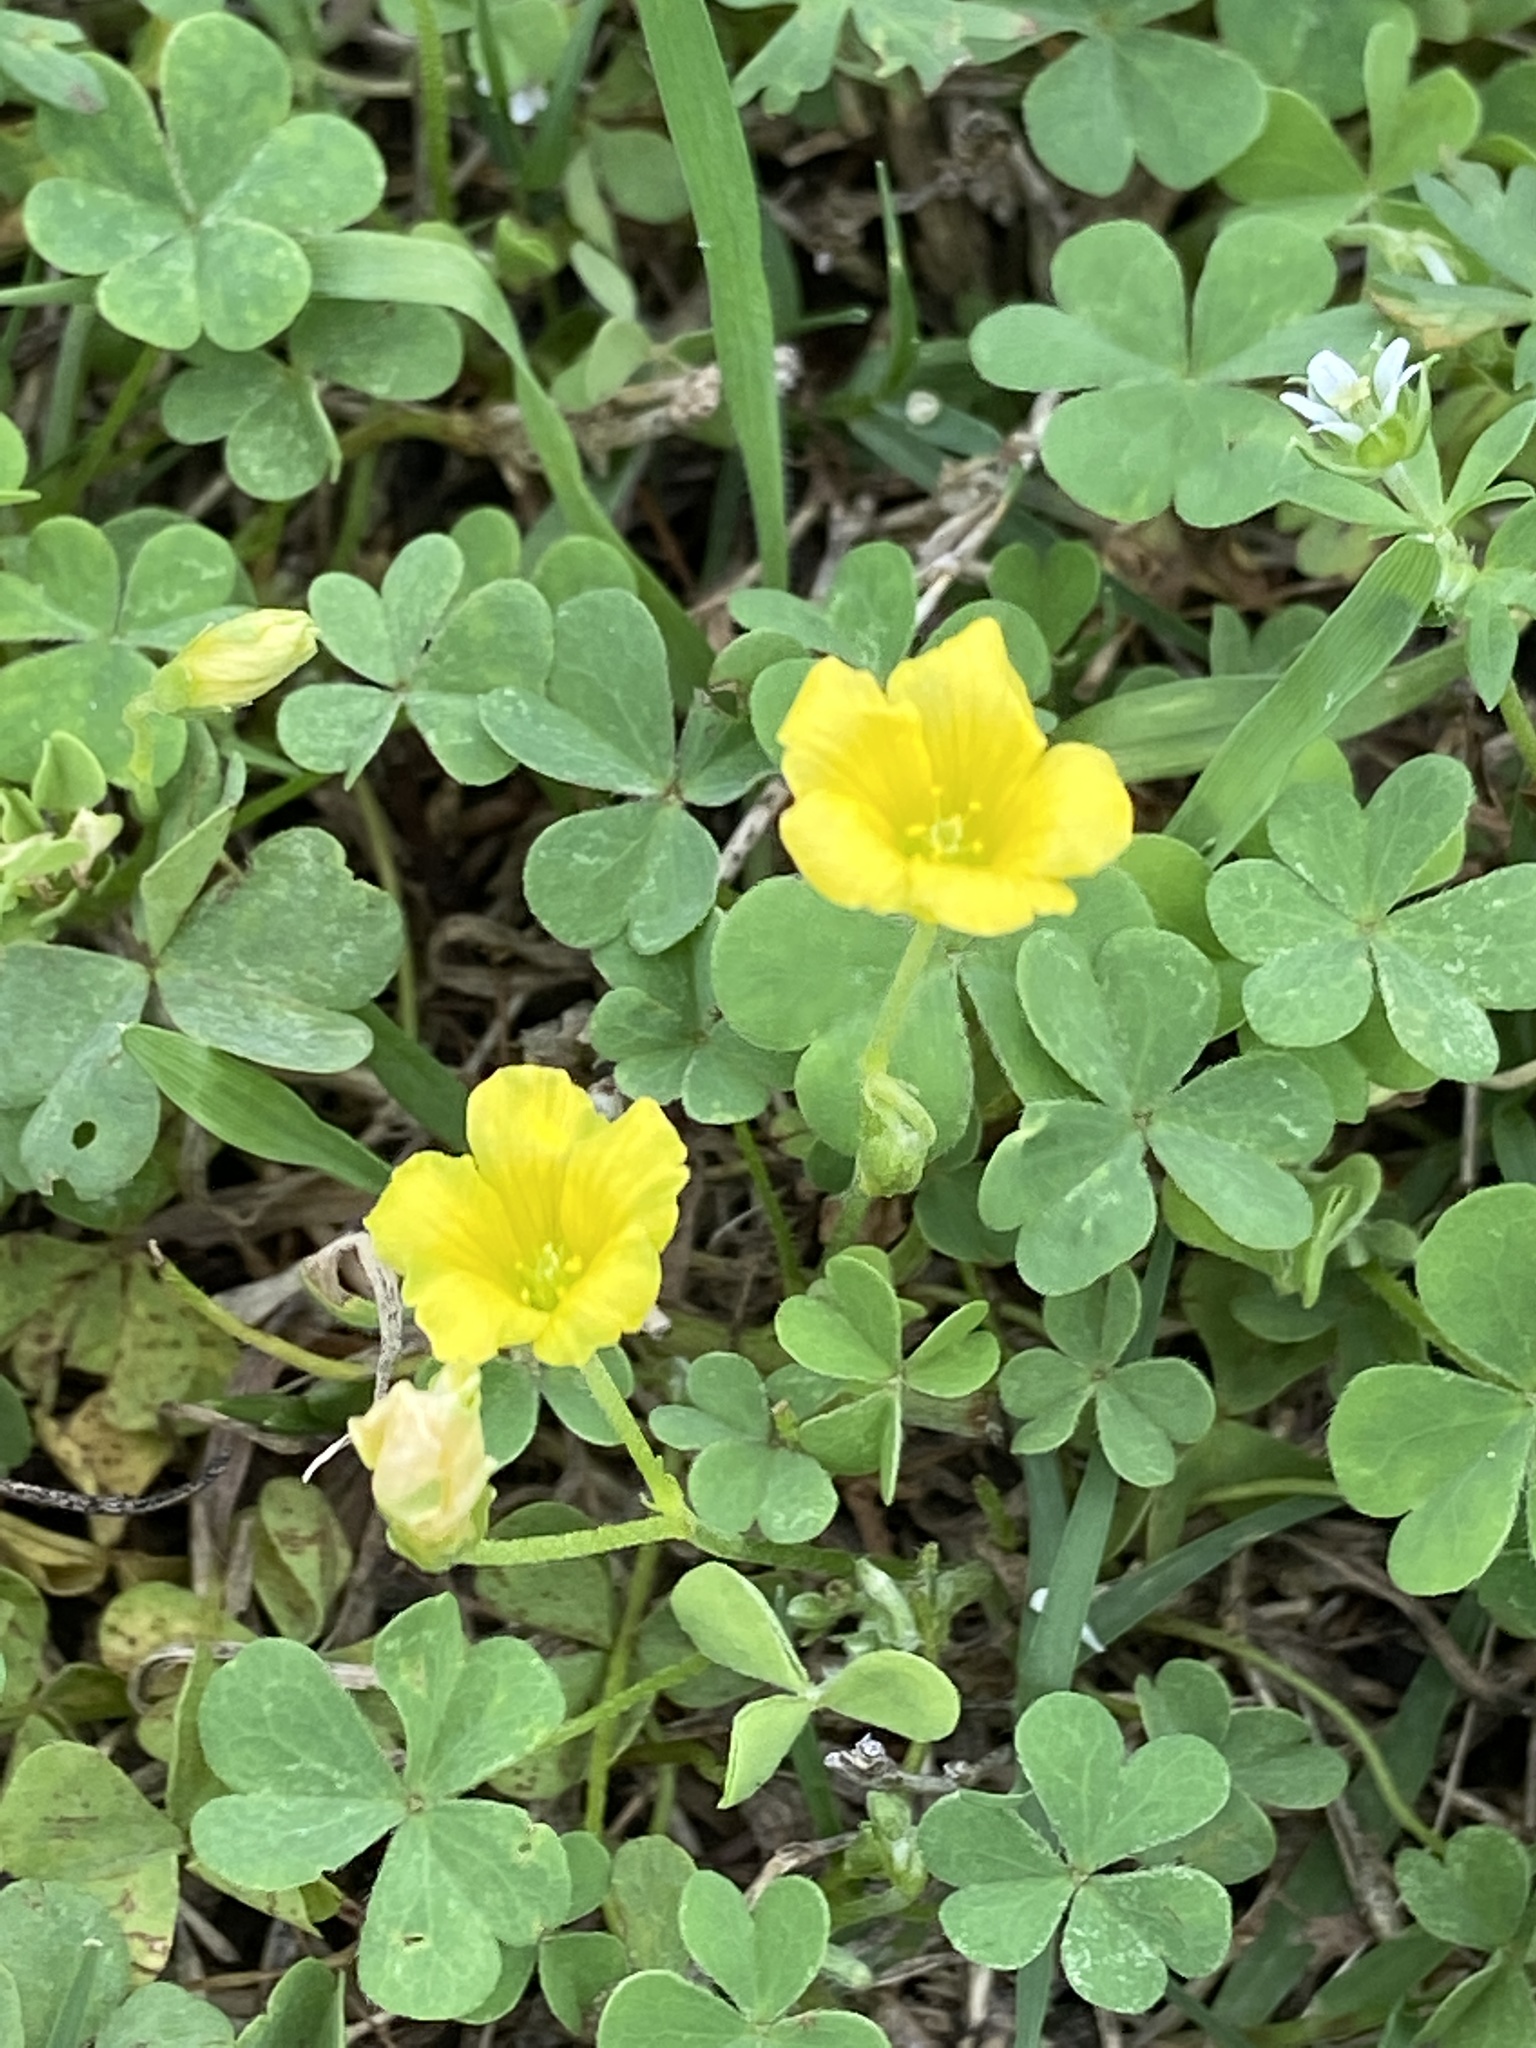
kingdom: Plantae
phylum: Tracheophyta
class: Magnoliopsida
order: Oxalidales
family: Oxalidaceae
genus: Oxalis
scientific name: Oxalis dillenii
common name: Sussex yellow-sorrel
